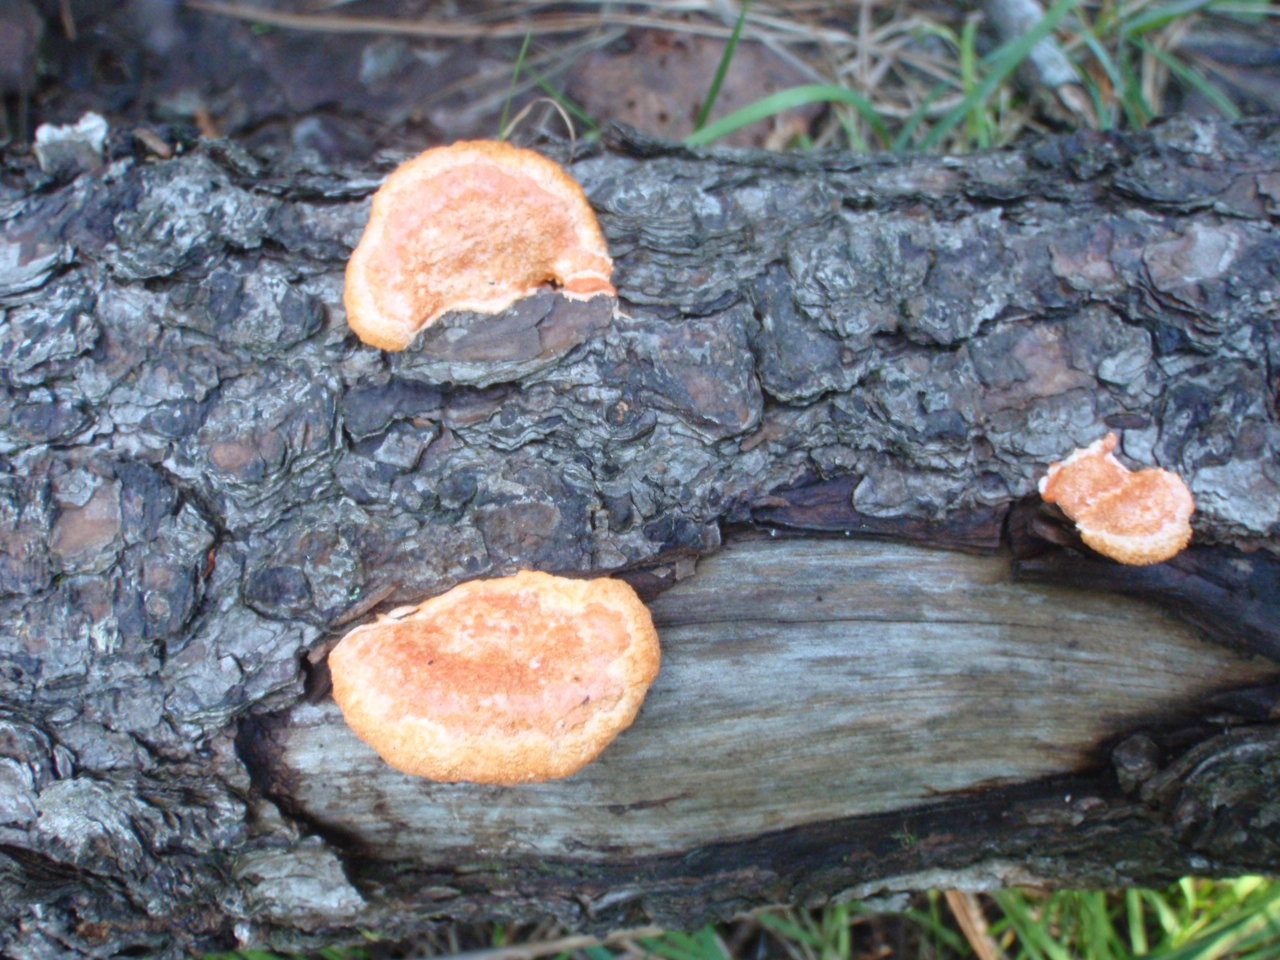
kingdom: Fungi
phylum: Basidiomycota
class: Agaricomycetes
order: Polyporales
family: Polyporaceae
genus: Trametes
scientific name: Trametes coccinea
